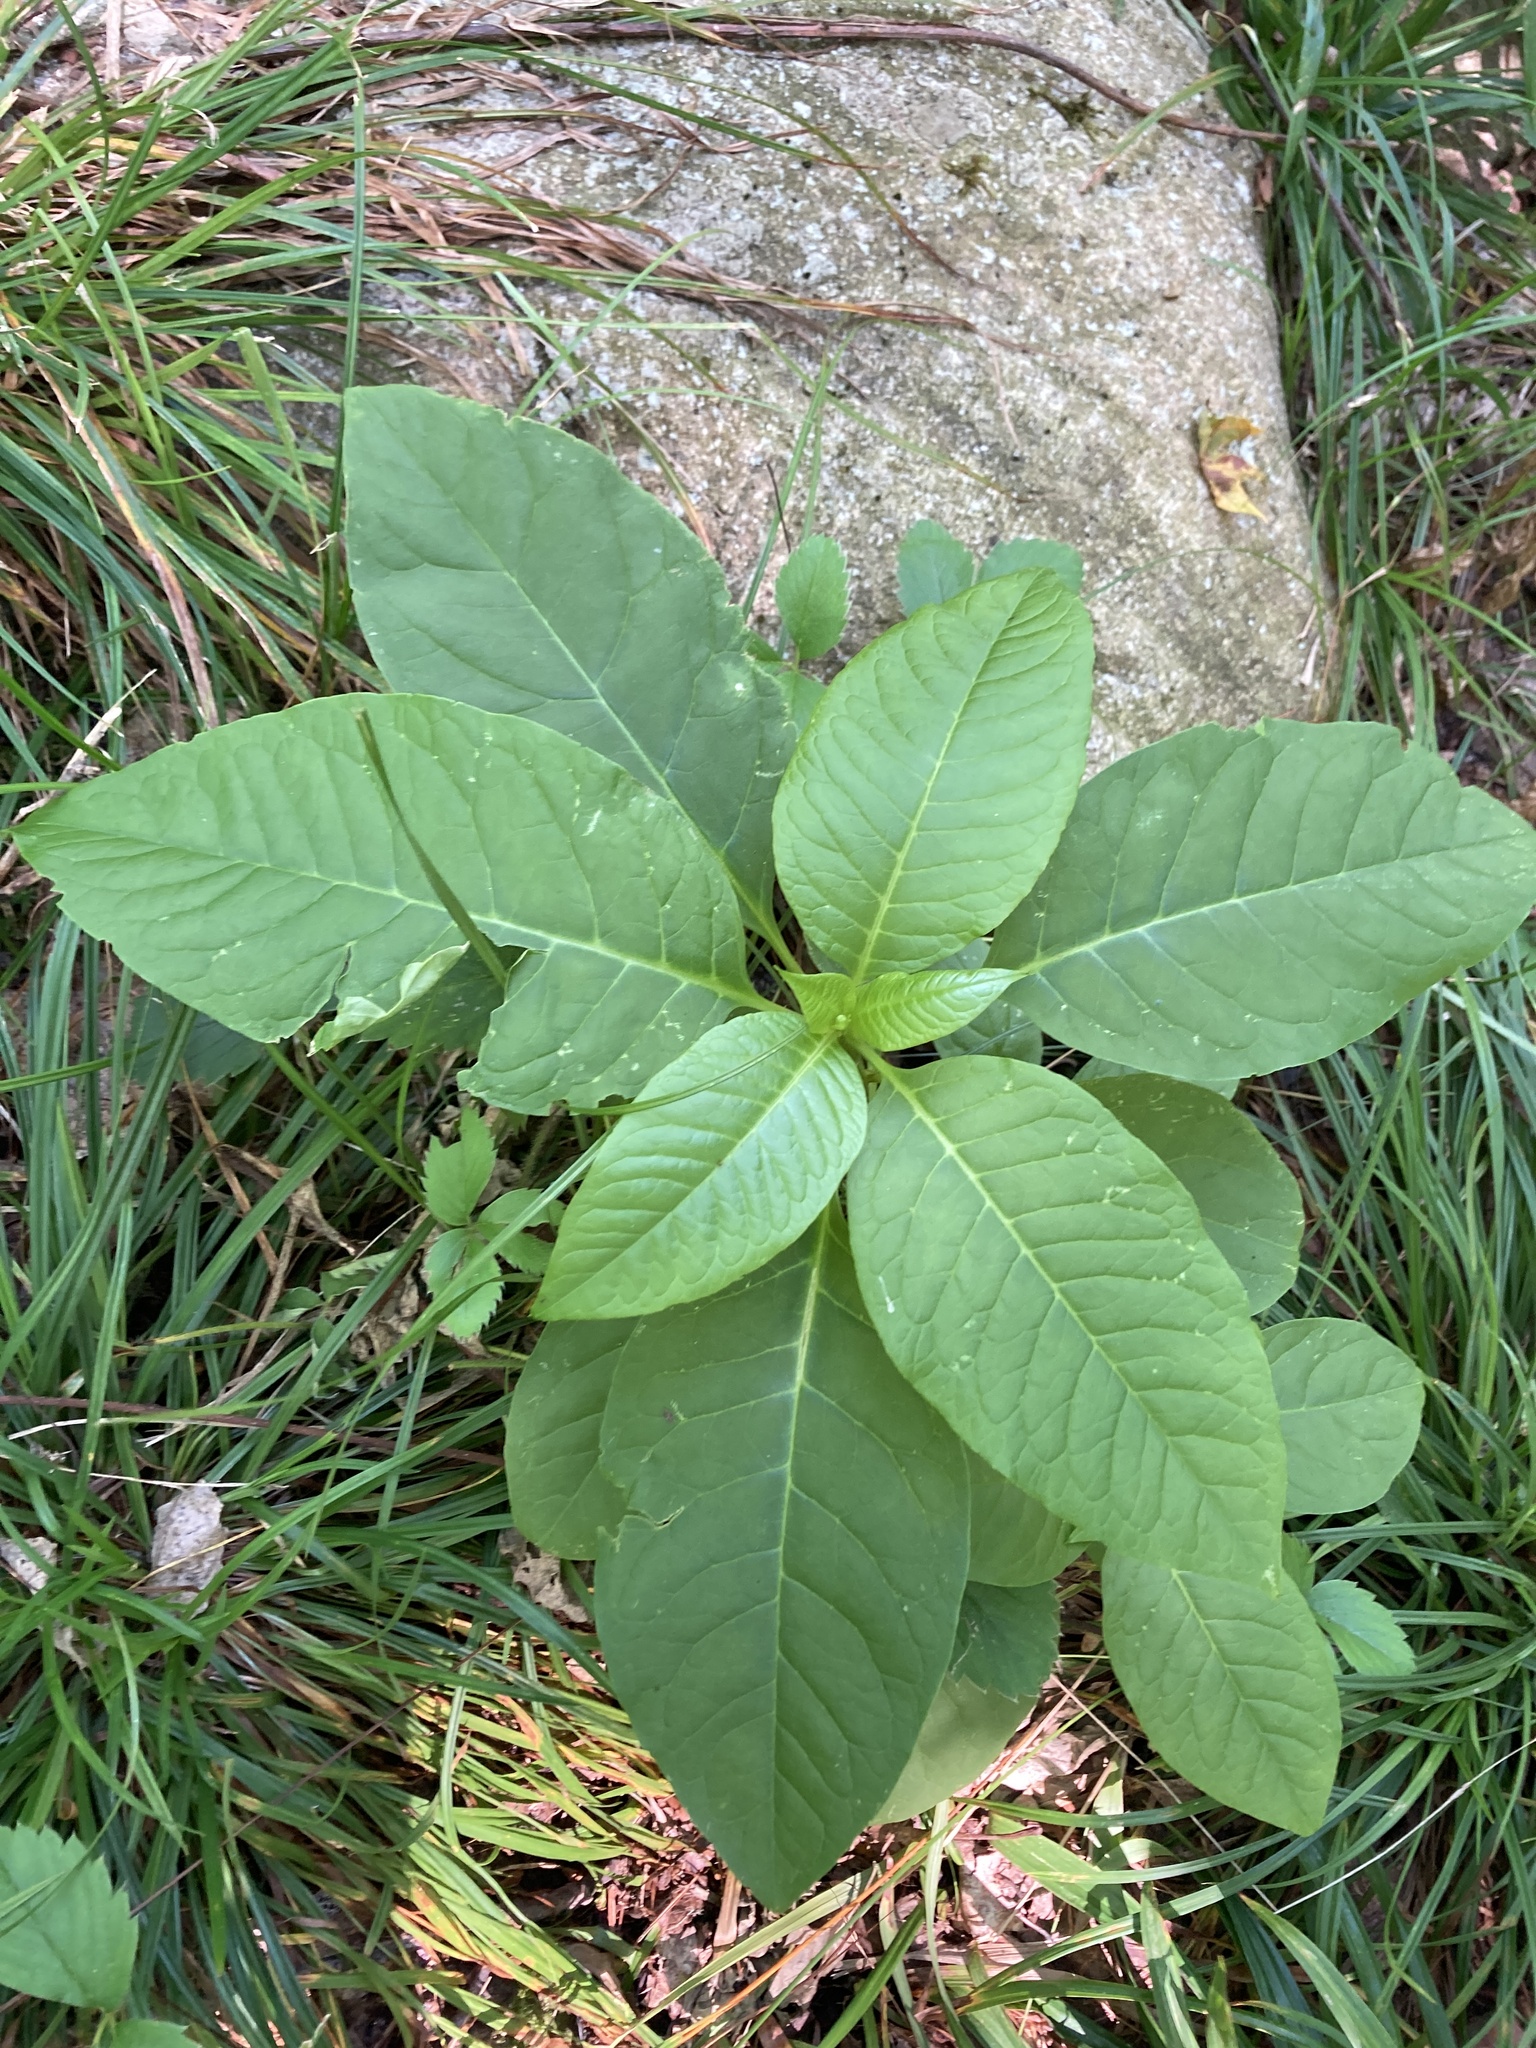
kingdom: Plantae
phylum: Tracheophyta
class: Magnoliopsida
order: Caryophyllales
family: Phytolaccaceae
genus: Phytolacca
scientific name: Phytolacca americana
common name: American pokeweed
